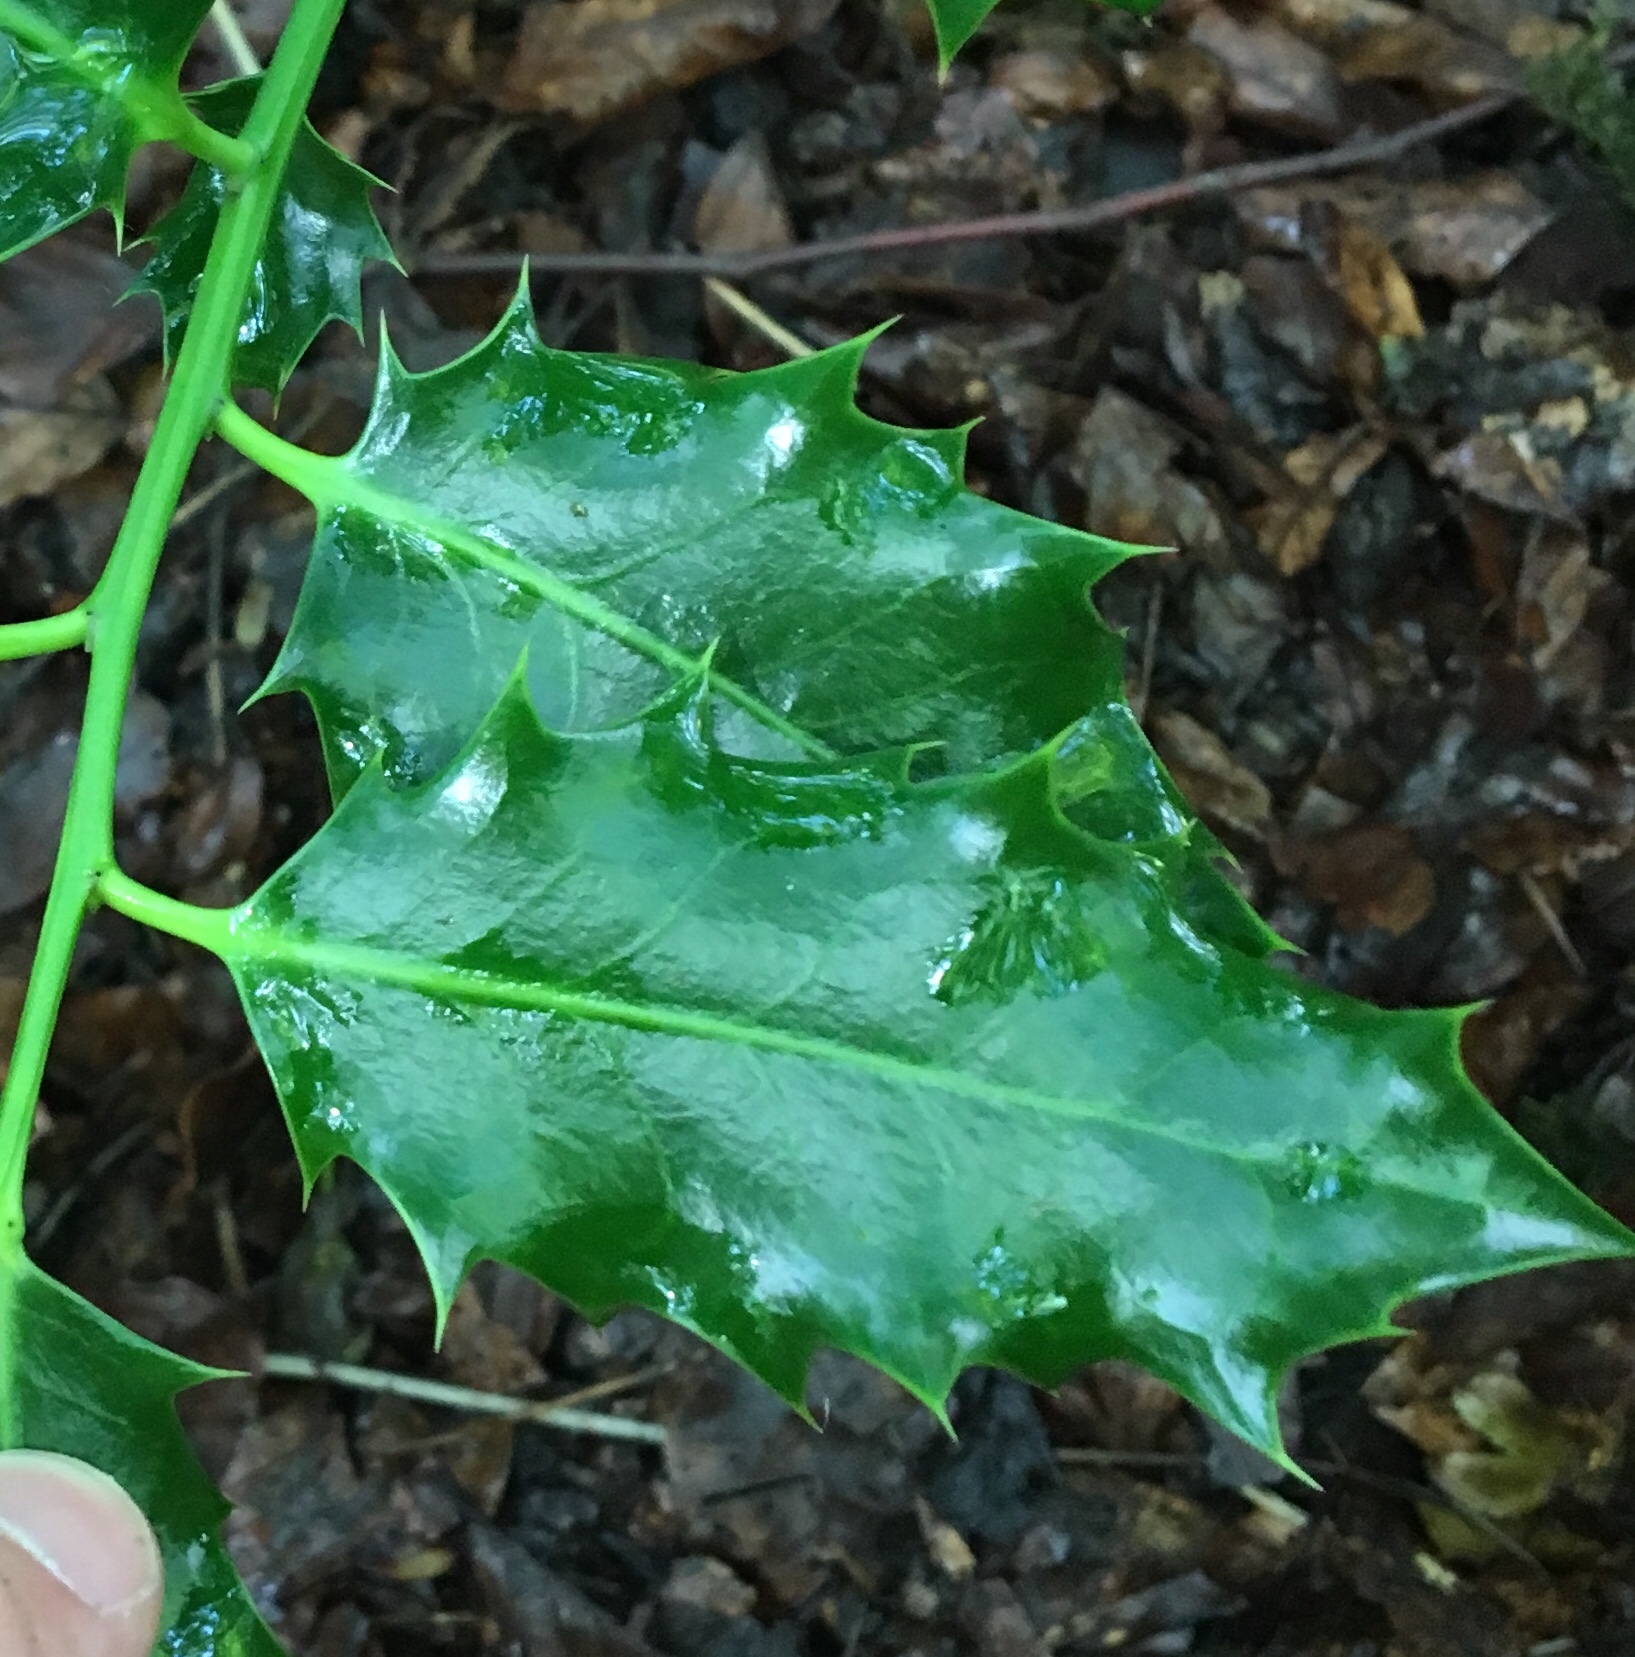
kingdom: Plantae
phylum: Tracheophyta
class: Magnoliopsida
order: Aquifoliales
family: Aquifoliaceae
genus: Ilex
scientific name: Ilex aquifolium
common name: English holly
